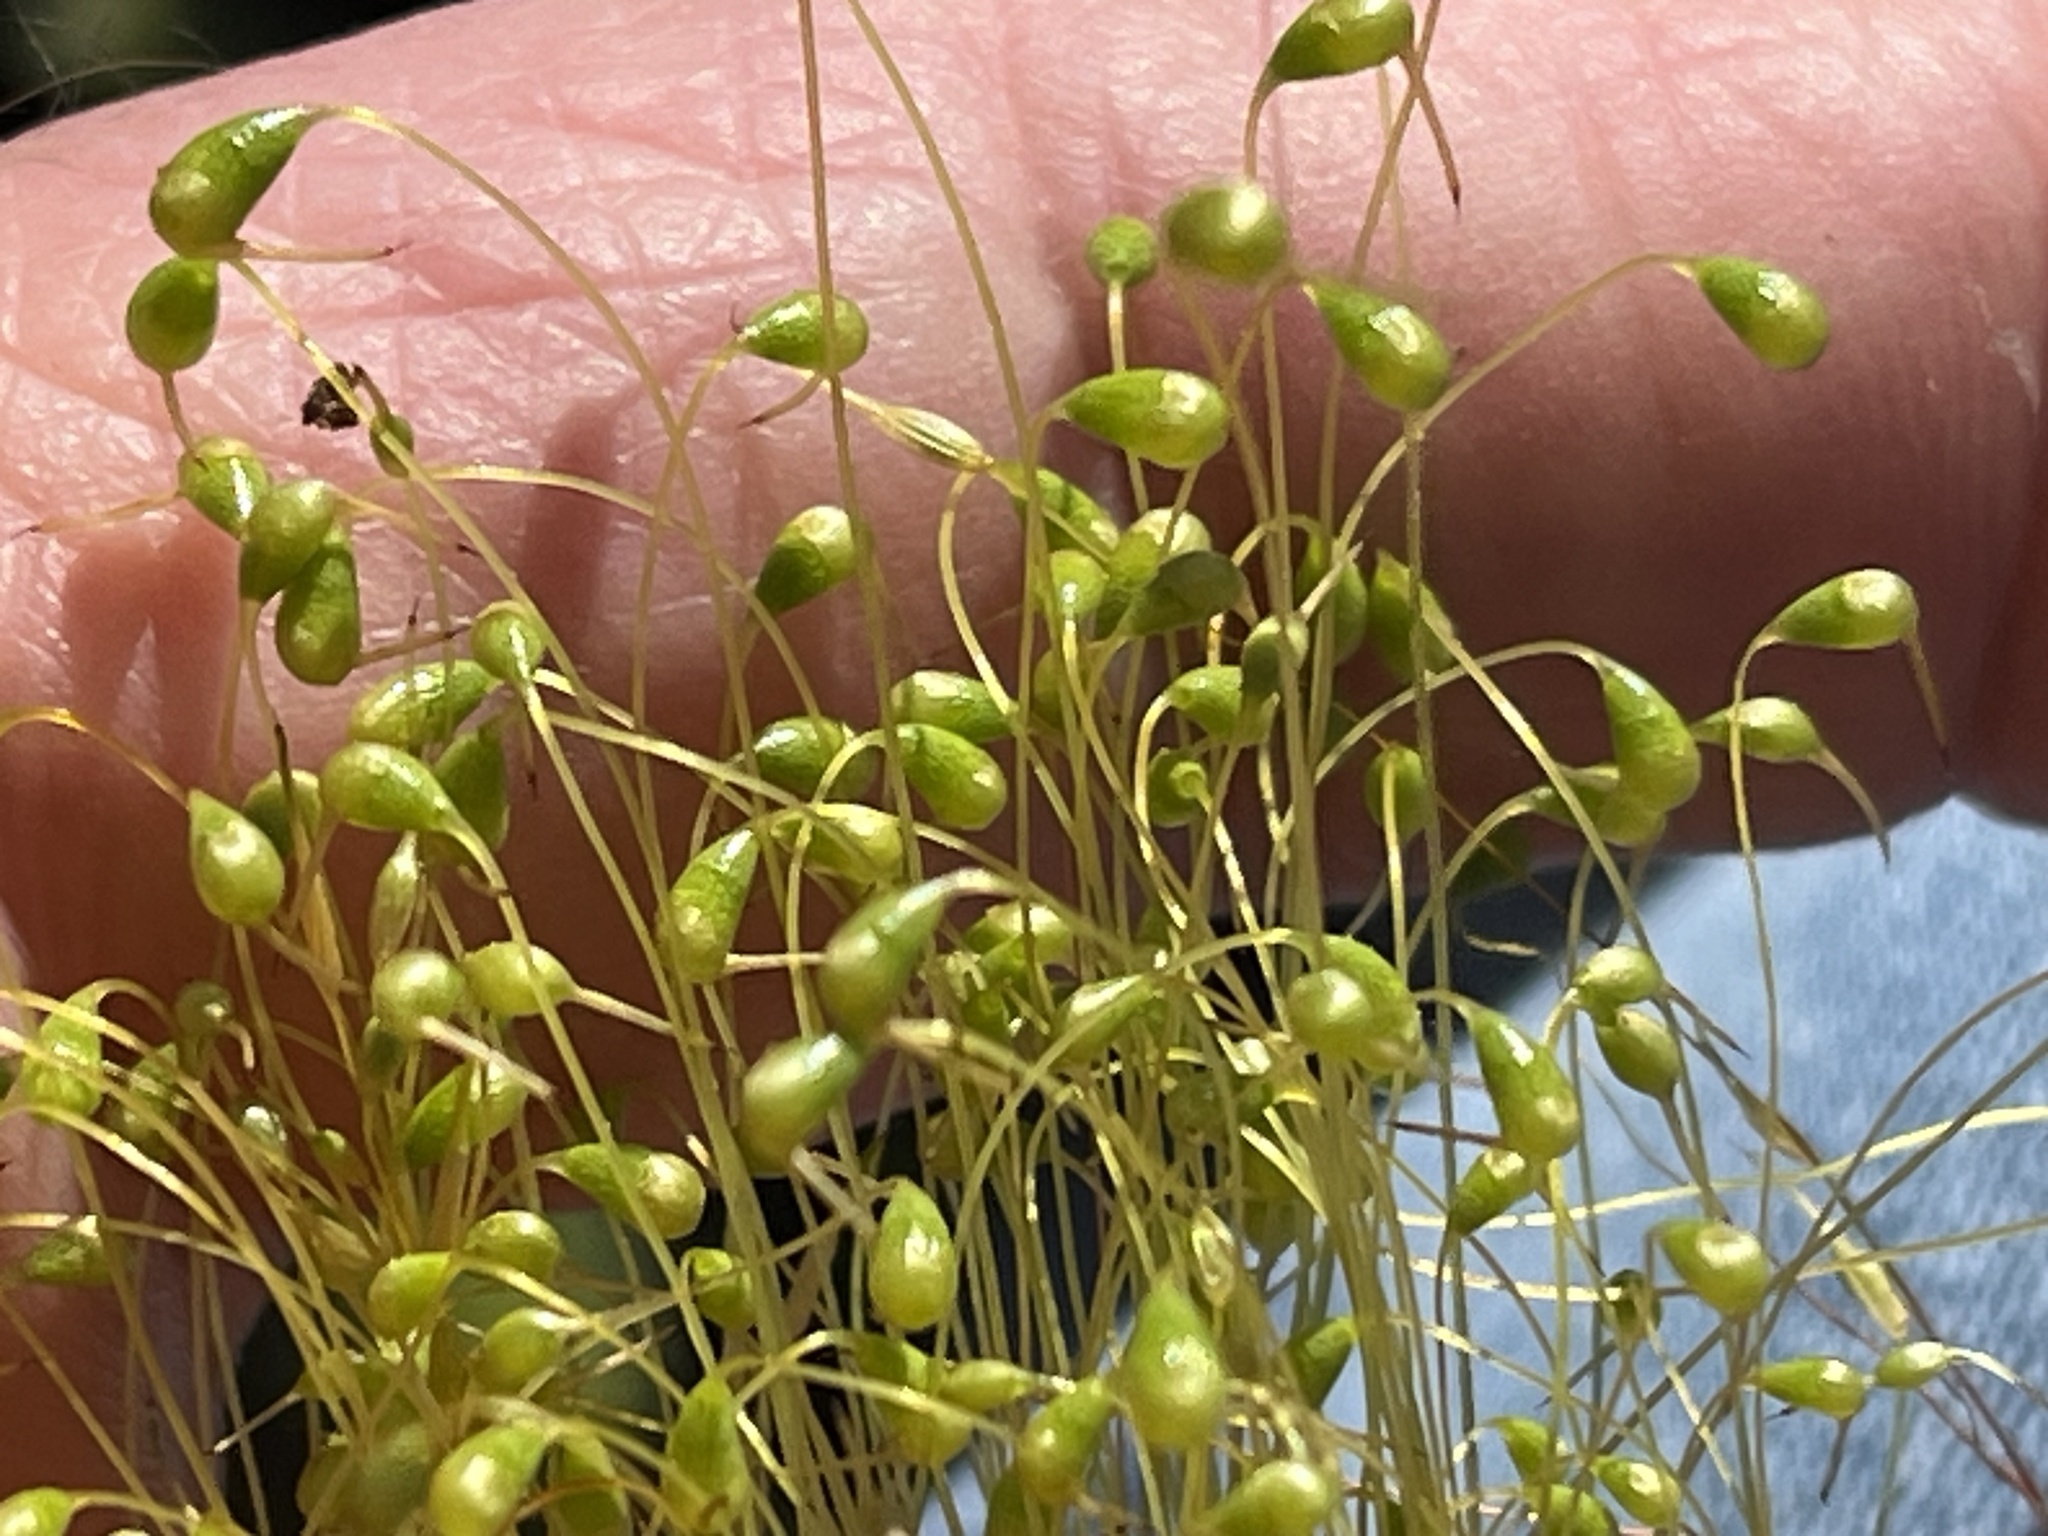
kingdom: Plantae
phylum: Bryophyta
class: Bryopsida
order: Funariales
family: Funariaceae
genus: Funaria
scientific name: Funaria hygrometrica
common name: Common cord moss
